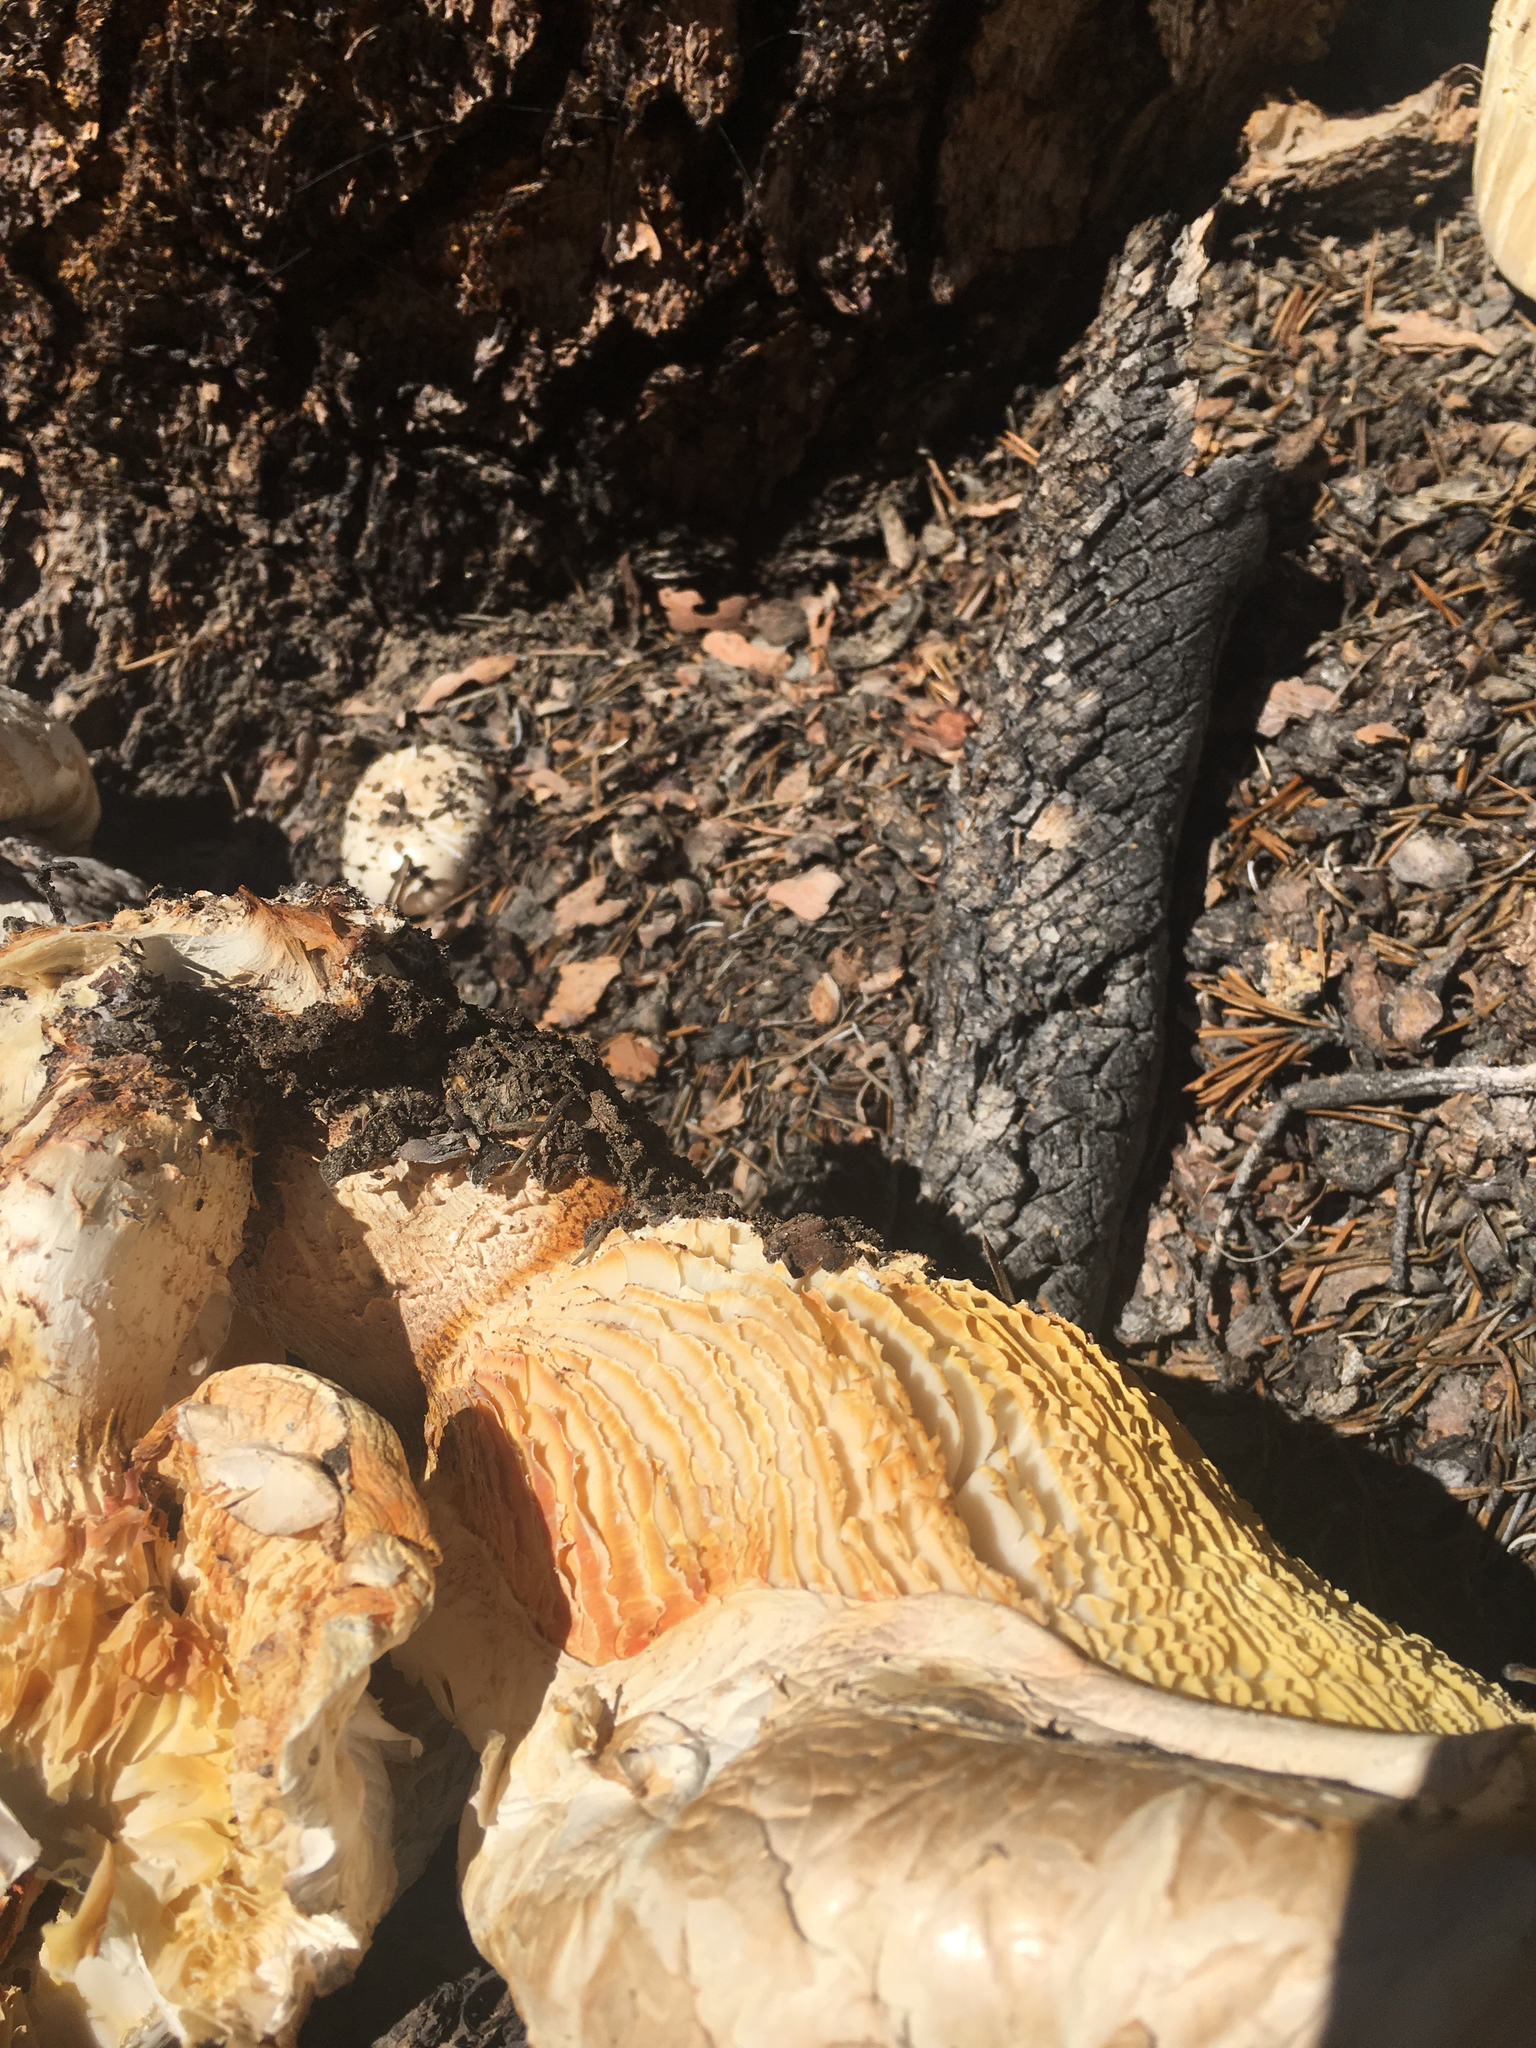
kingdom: Fungi
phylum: Basidiomycota
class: Agaricomycetes
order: Gloeophyllales
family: Gloeophyllaceae
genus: Neolentinus
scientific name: Neolentinus ponderosus
